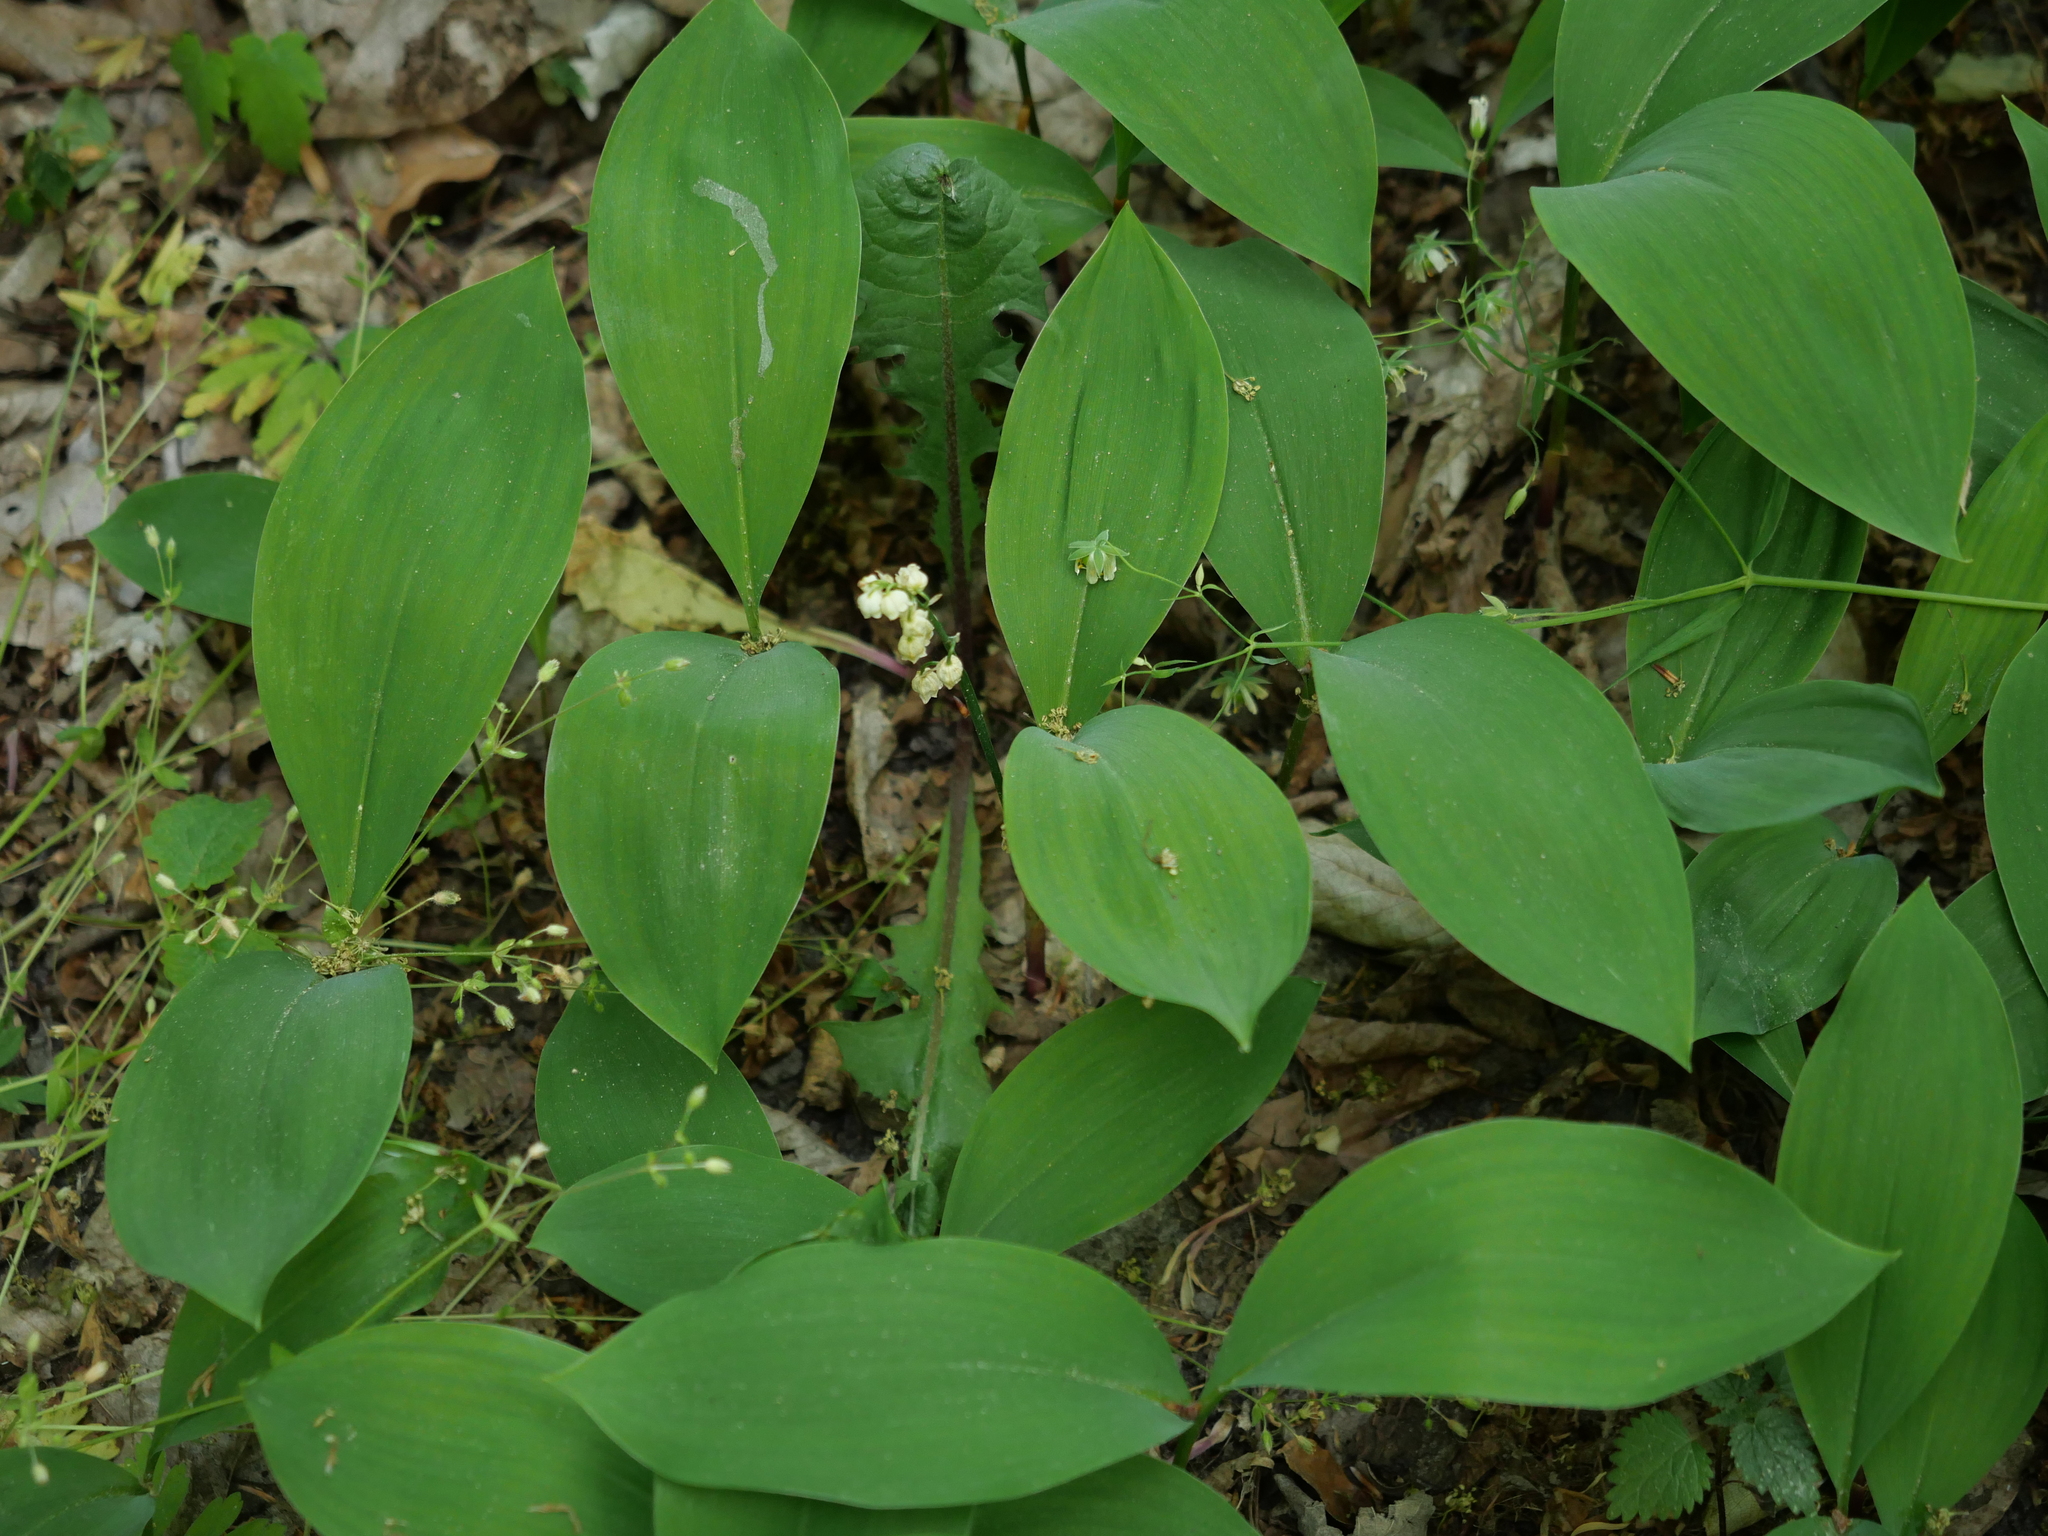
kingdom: Plantae
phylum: Tracheophyta
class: Liliopsida
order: Asparagales
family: Asparagaceae
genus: Convallaria
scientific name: Convallaria majalis
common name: Lily-of-the-valley
